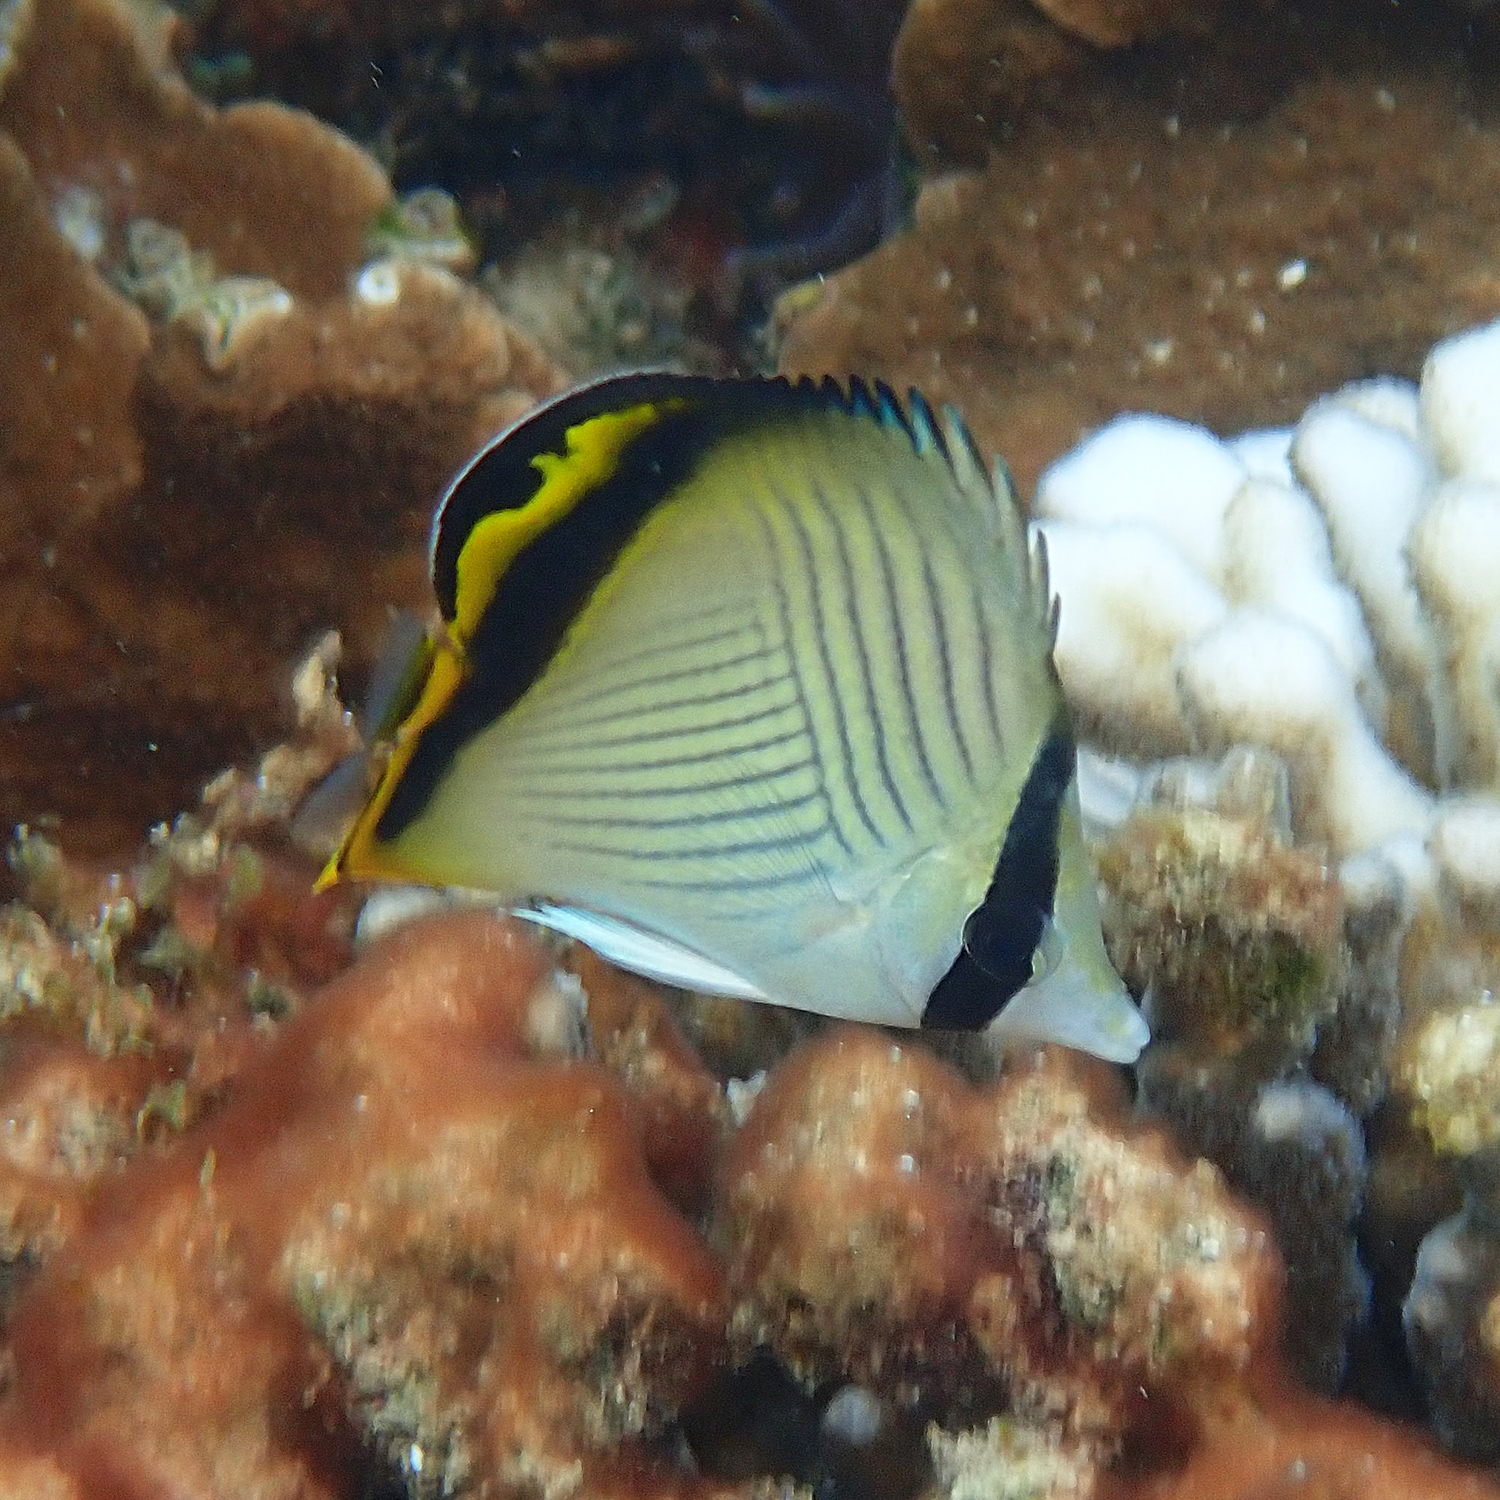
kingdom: Animalia
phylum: Chordata
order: Perciformes
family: Chaetodontidae
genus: Chaetodon
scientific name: Chaetodon vagabundus
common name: Vagabond butterflyfish
